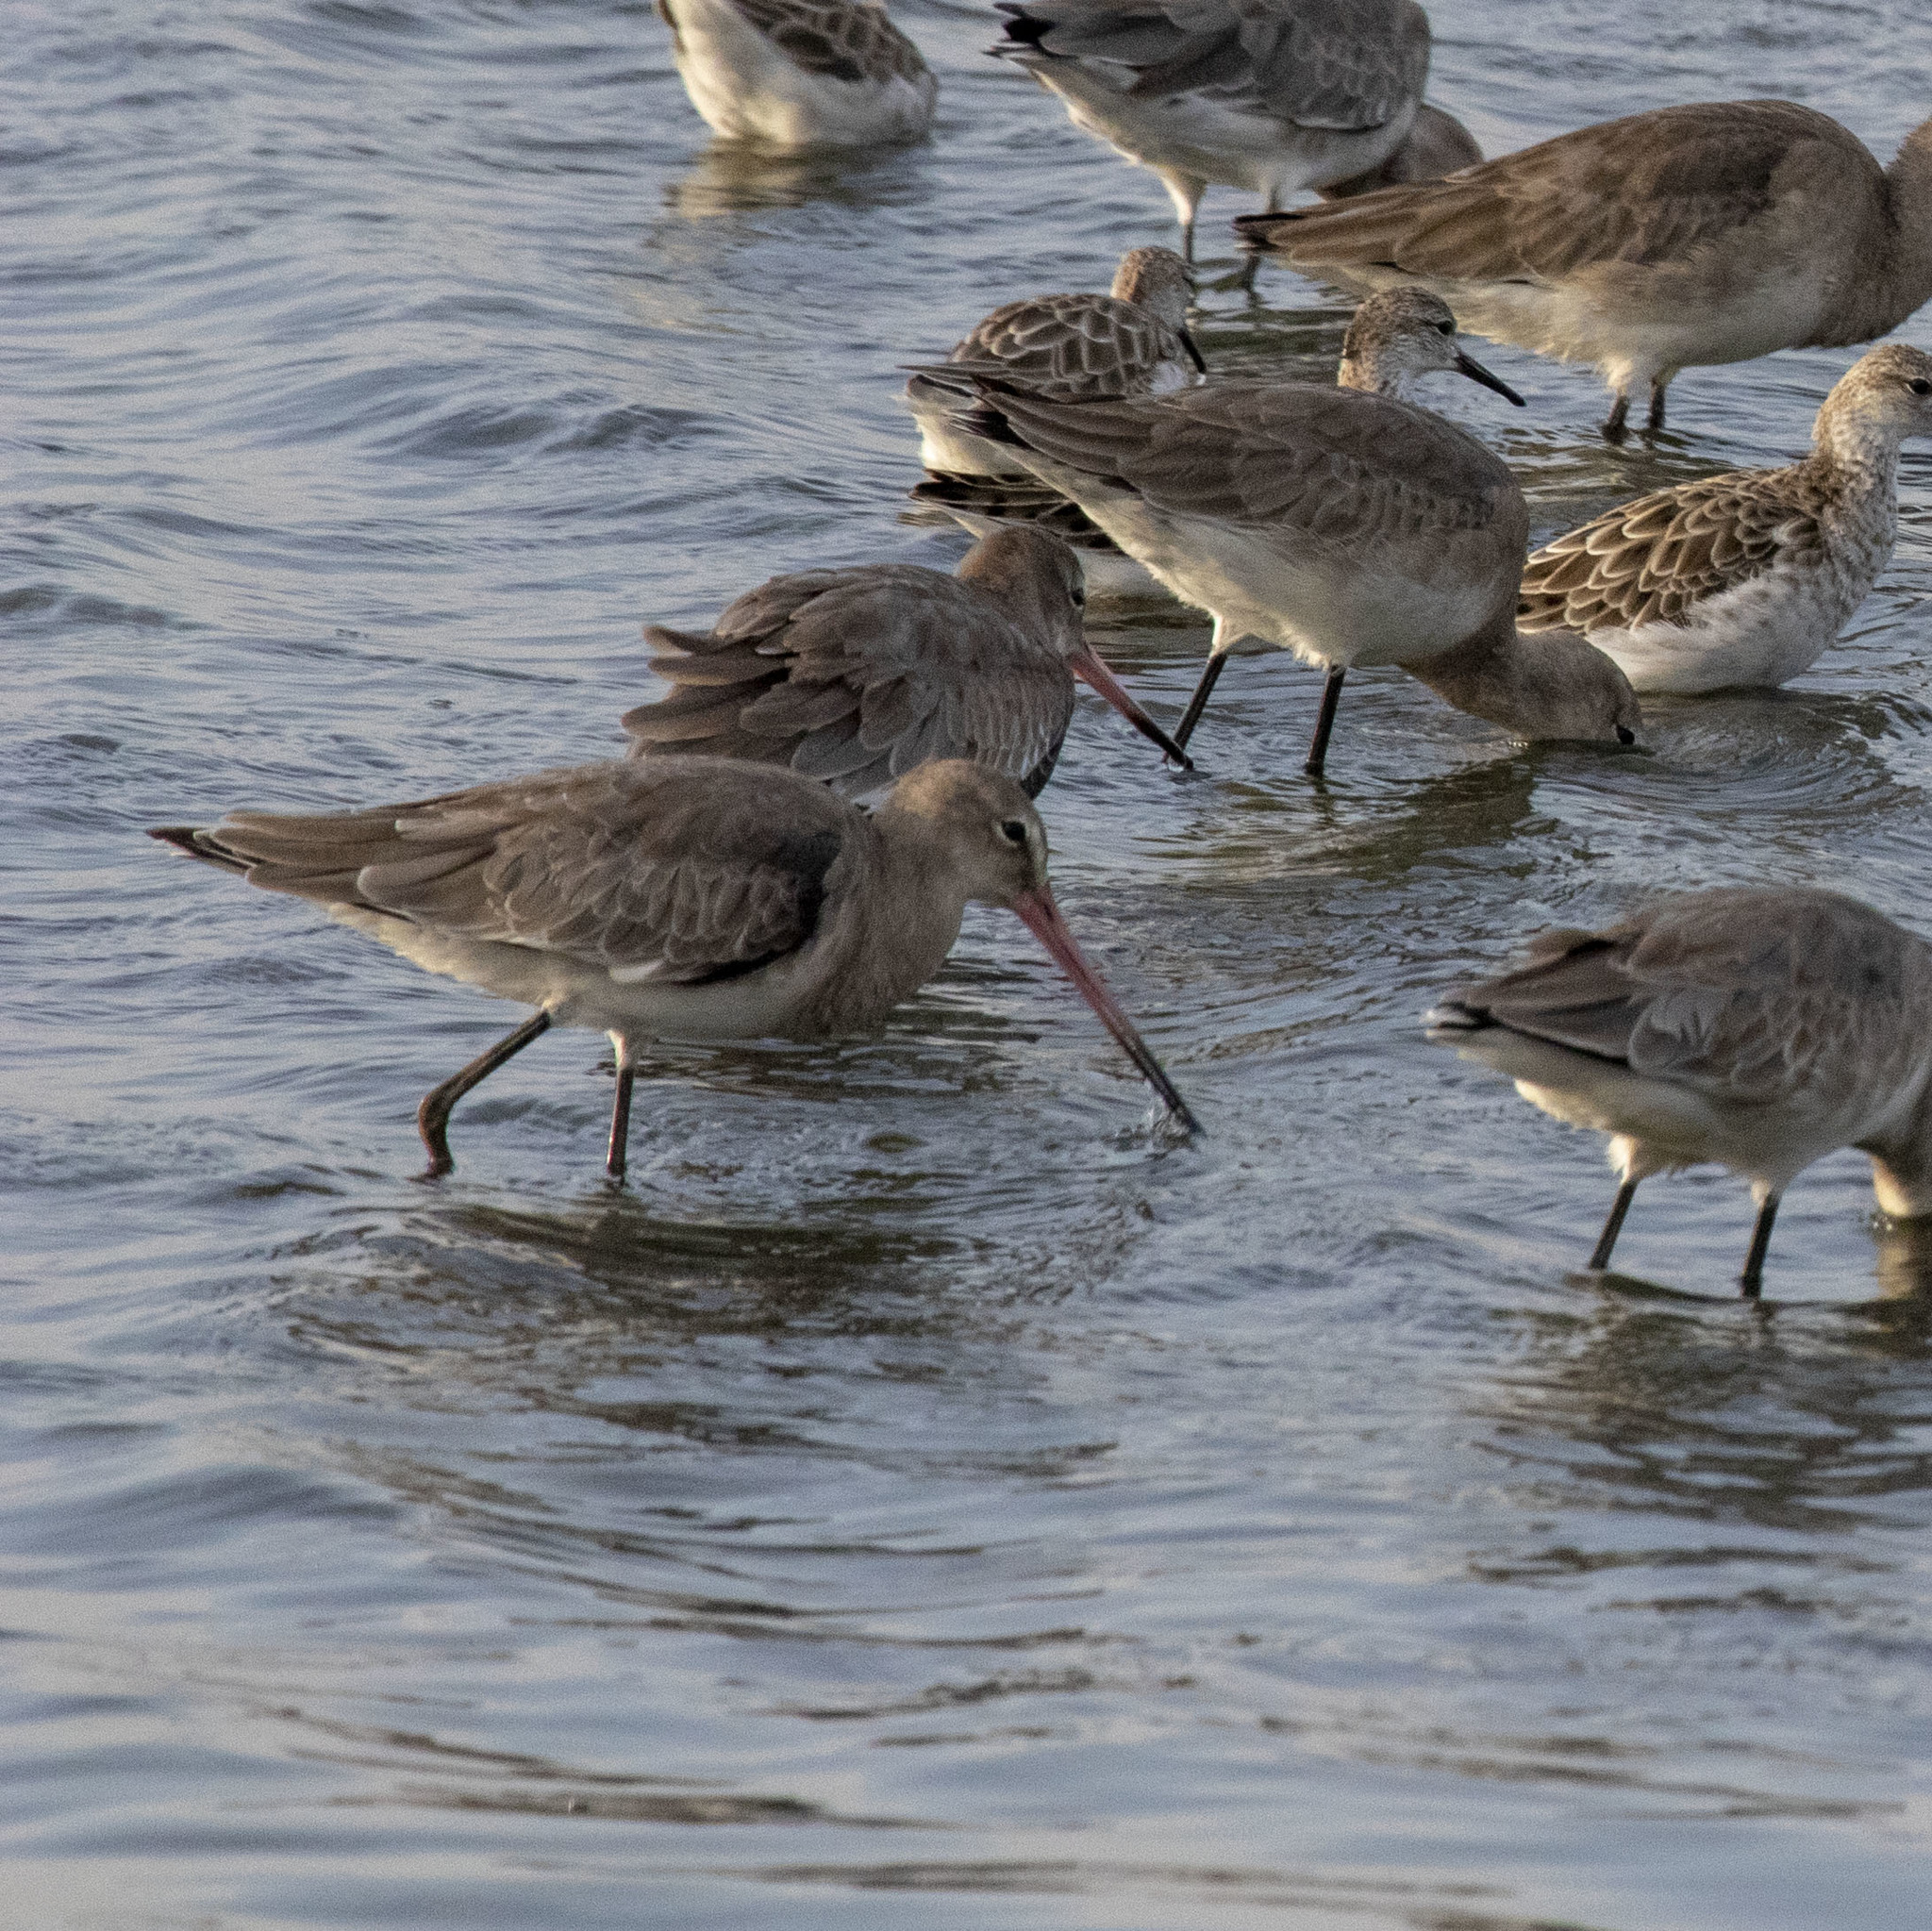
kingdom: Animalia
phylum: Chordata
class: Aves
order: Charadriiformes
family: Scolopacidae
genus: Limosa
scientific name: Limosa limosa
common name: Black-tailed godwit
